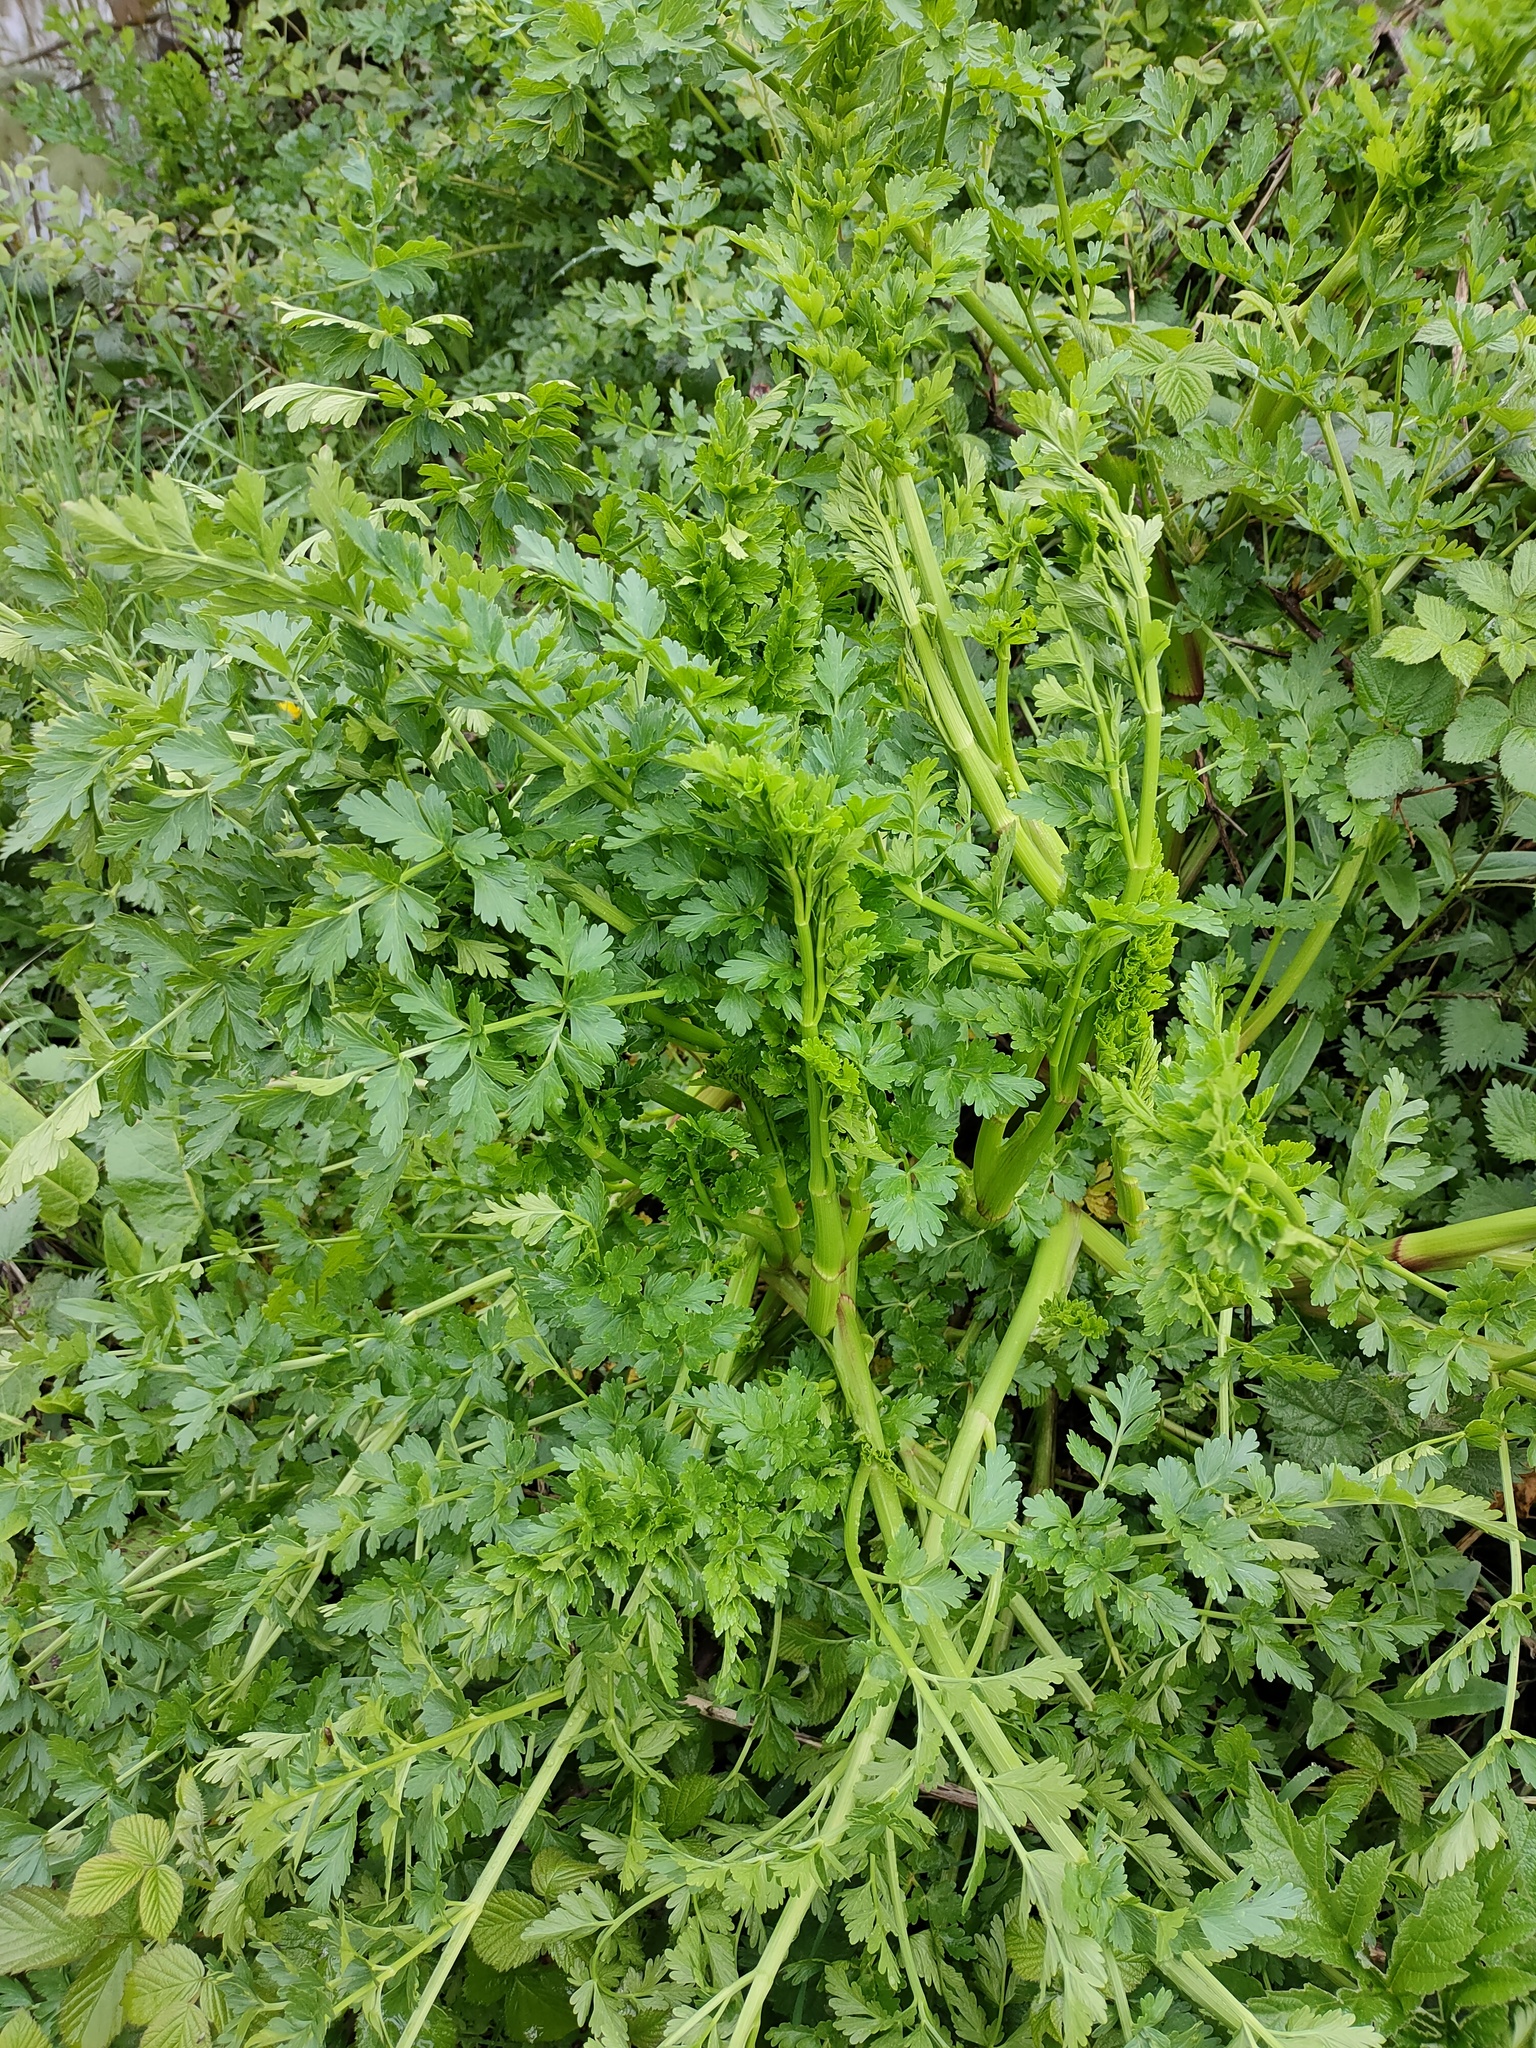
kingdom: Plantae
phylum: Tracheophyta
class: Magnoliopsida
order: Apiales
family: Apiaceae
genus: Oenanthe
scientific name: Oenanthe crocata
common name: Hemlock water-dropwort
